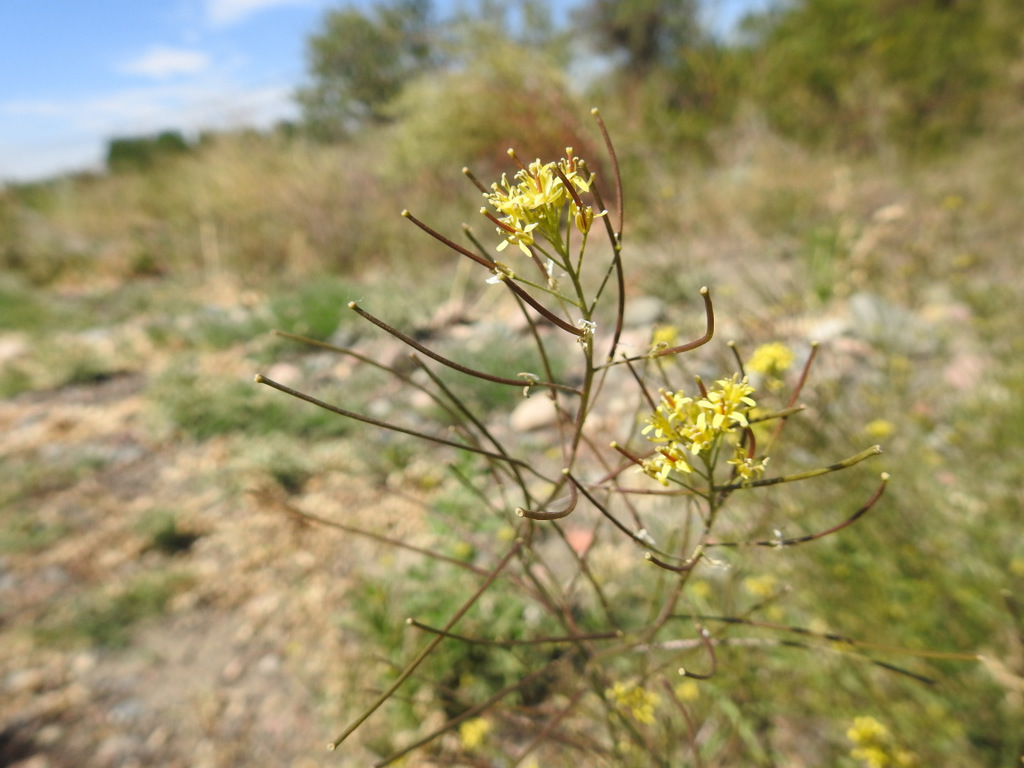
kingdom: Plantae
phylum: Tracheophyta
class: Magnoliopsida
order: Brassicales
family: Brassicaceae
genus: Sisymbrium
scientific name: Sisymbrium irio
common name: London rocket
